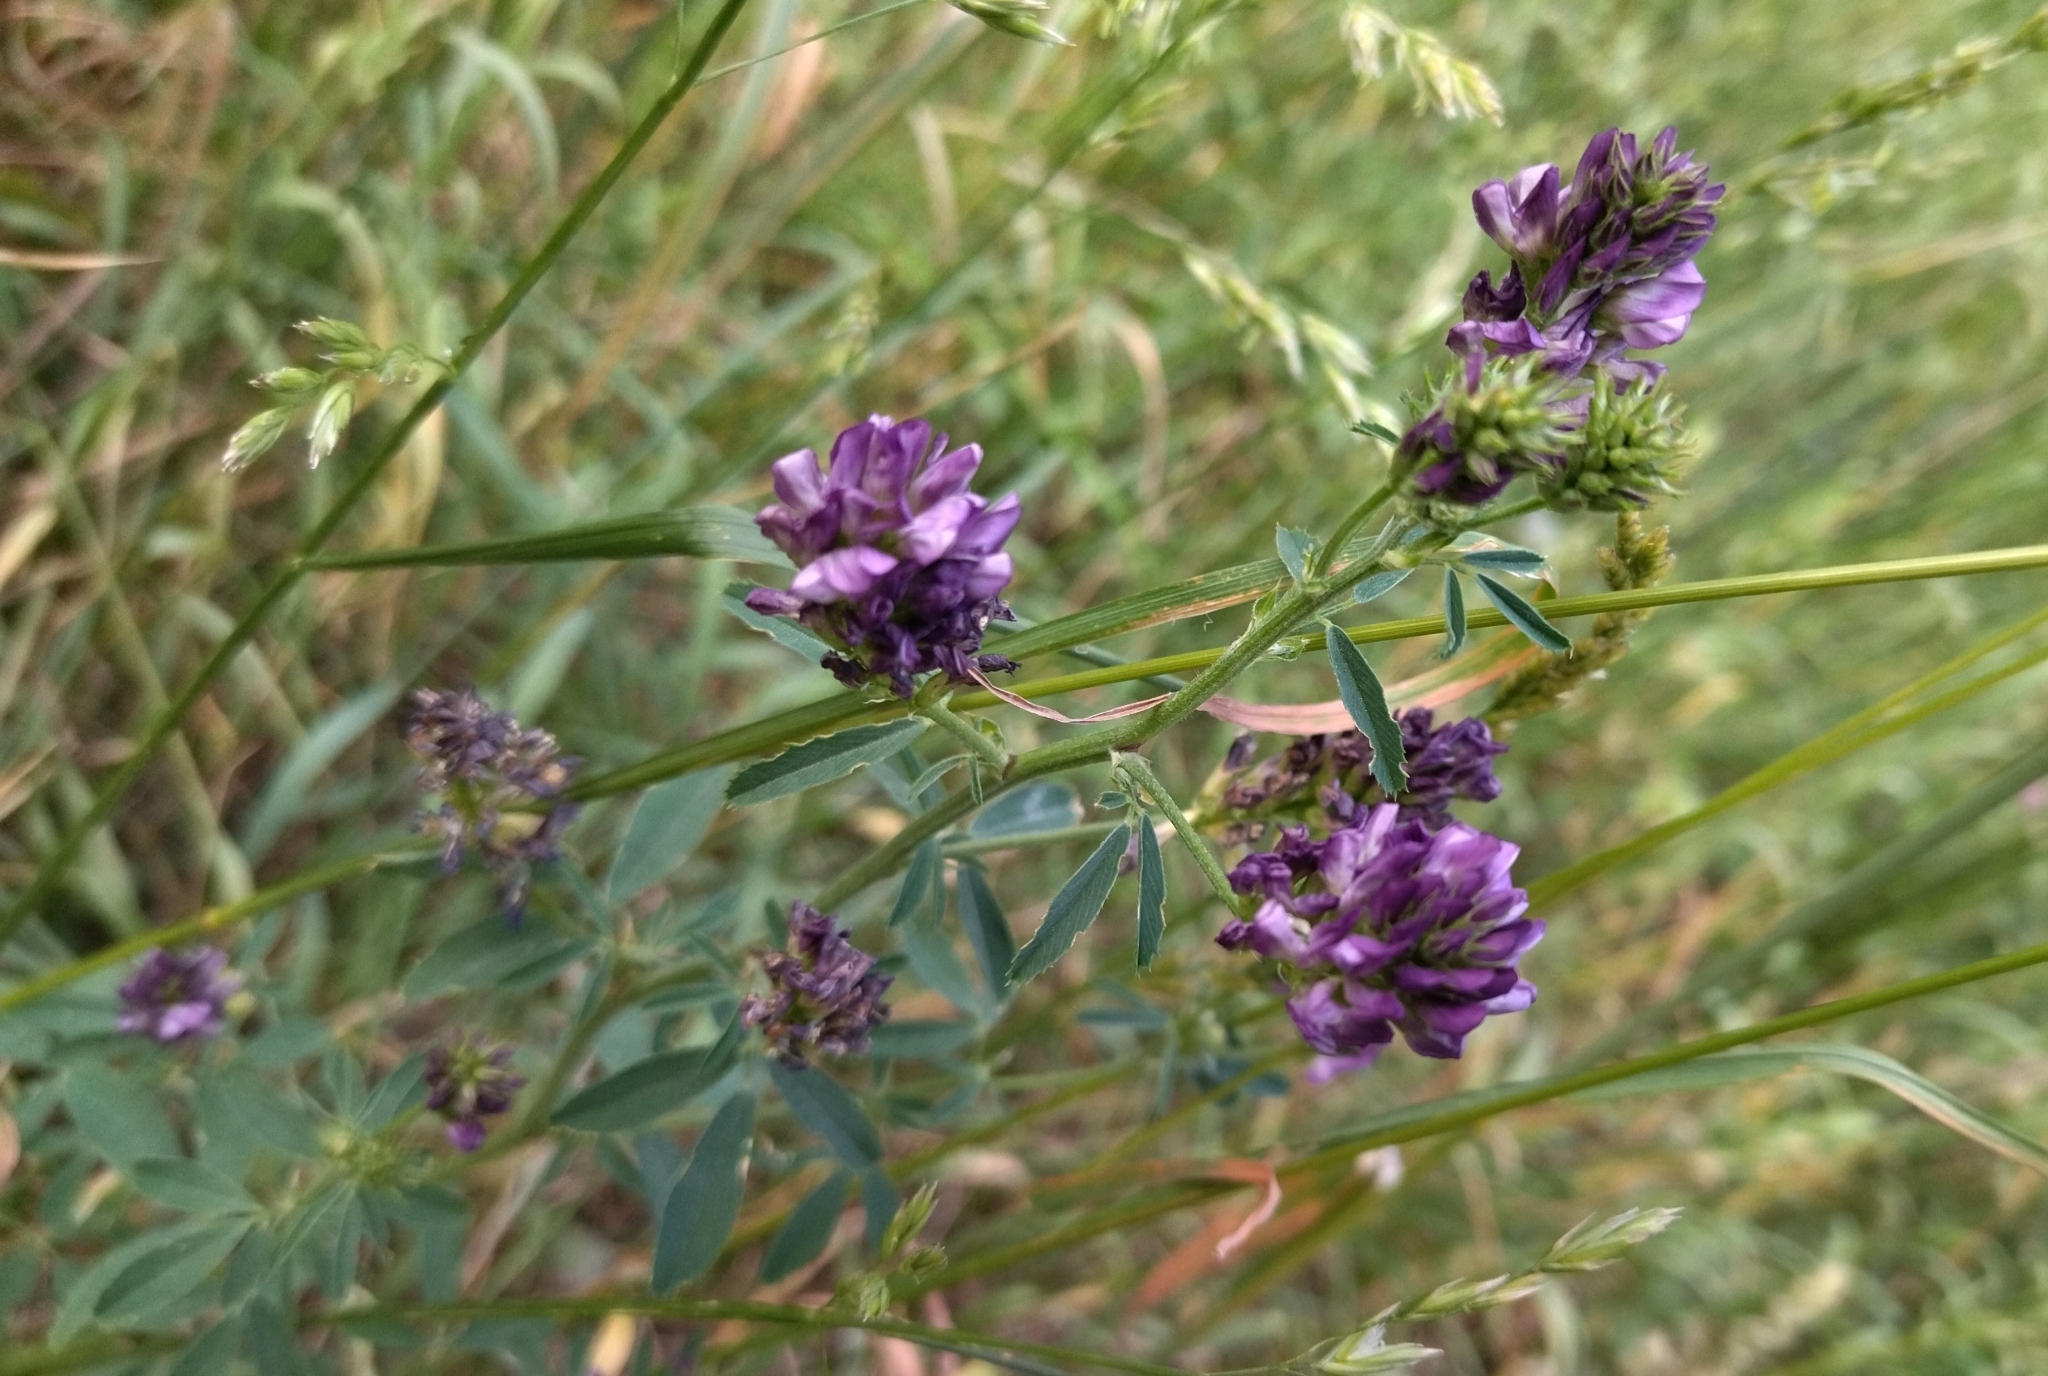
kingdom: Plantae
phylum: Tracheophyta
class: Magnoliopsida
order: Fabales
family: Fabaceae
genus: Medicago
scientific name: Medicago varia
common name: Sand lucerne
